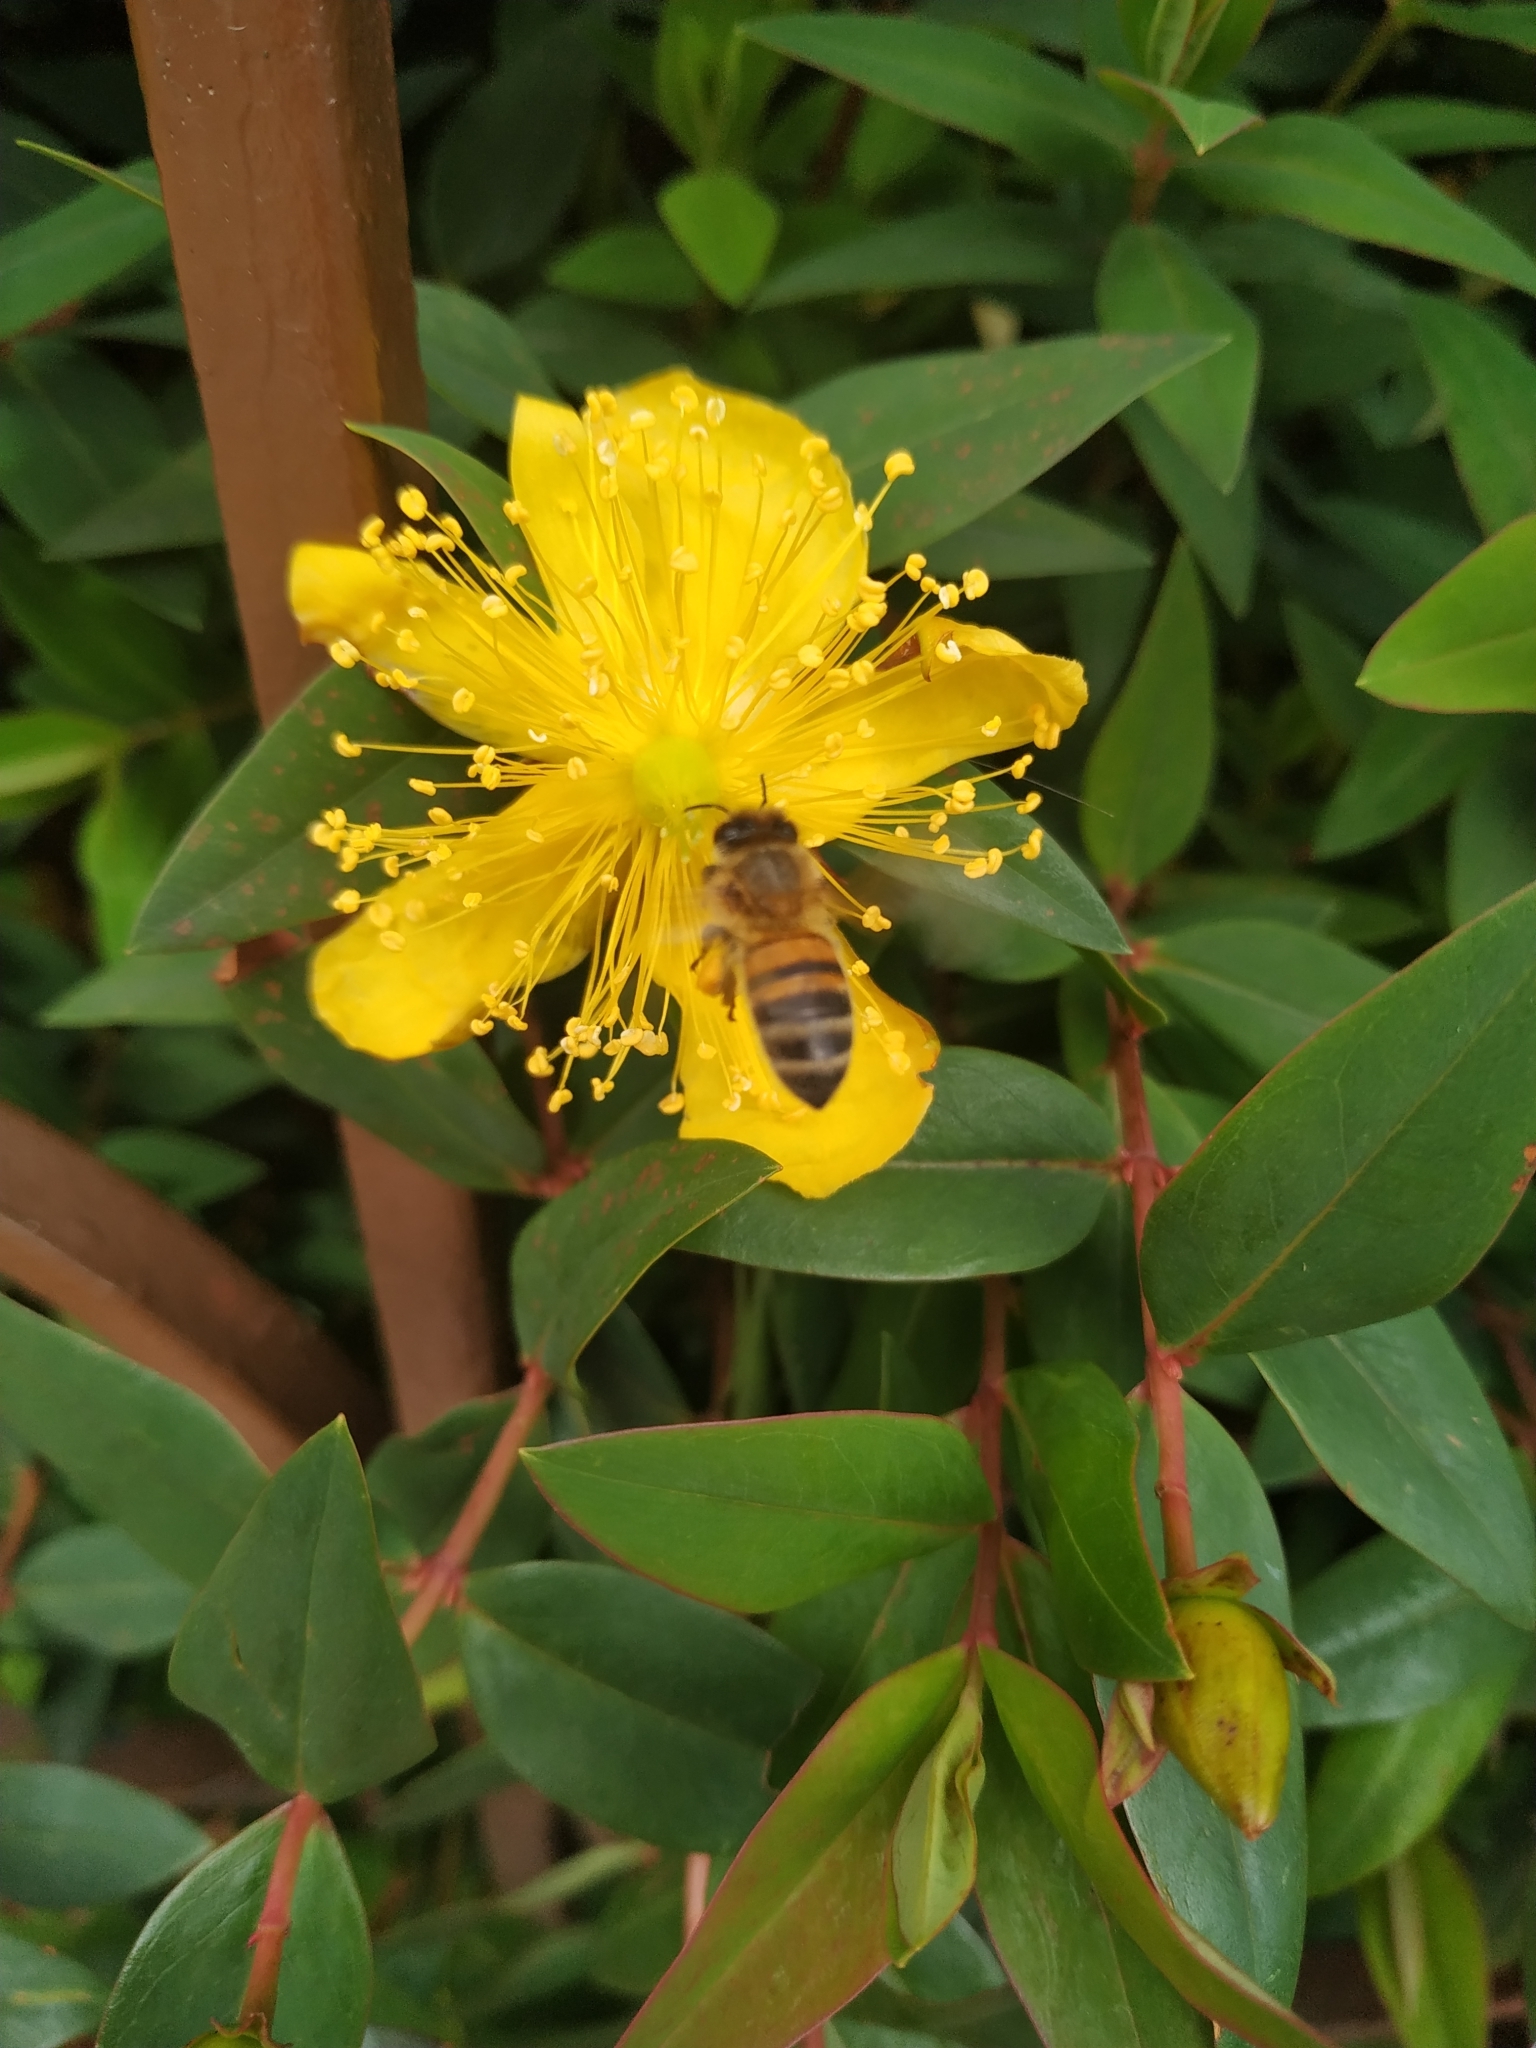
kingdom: Animalia
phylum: Arthropoda
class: Insecta
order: Hymenoptera
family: Apidae
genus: Apis
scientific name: Apis mellifera
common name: Honey bee
